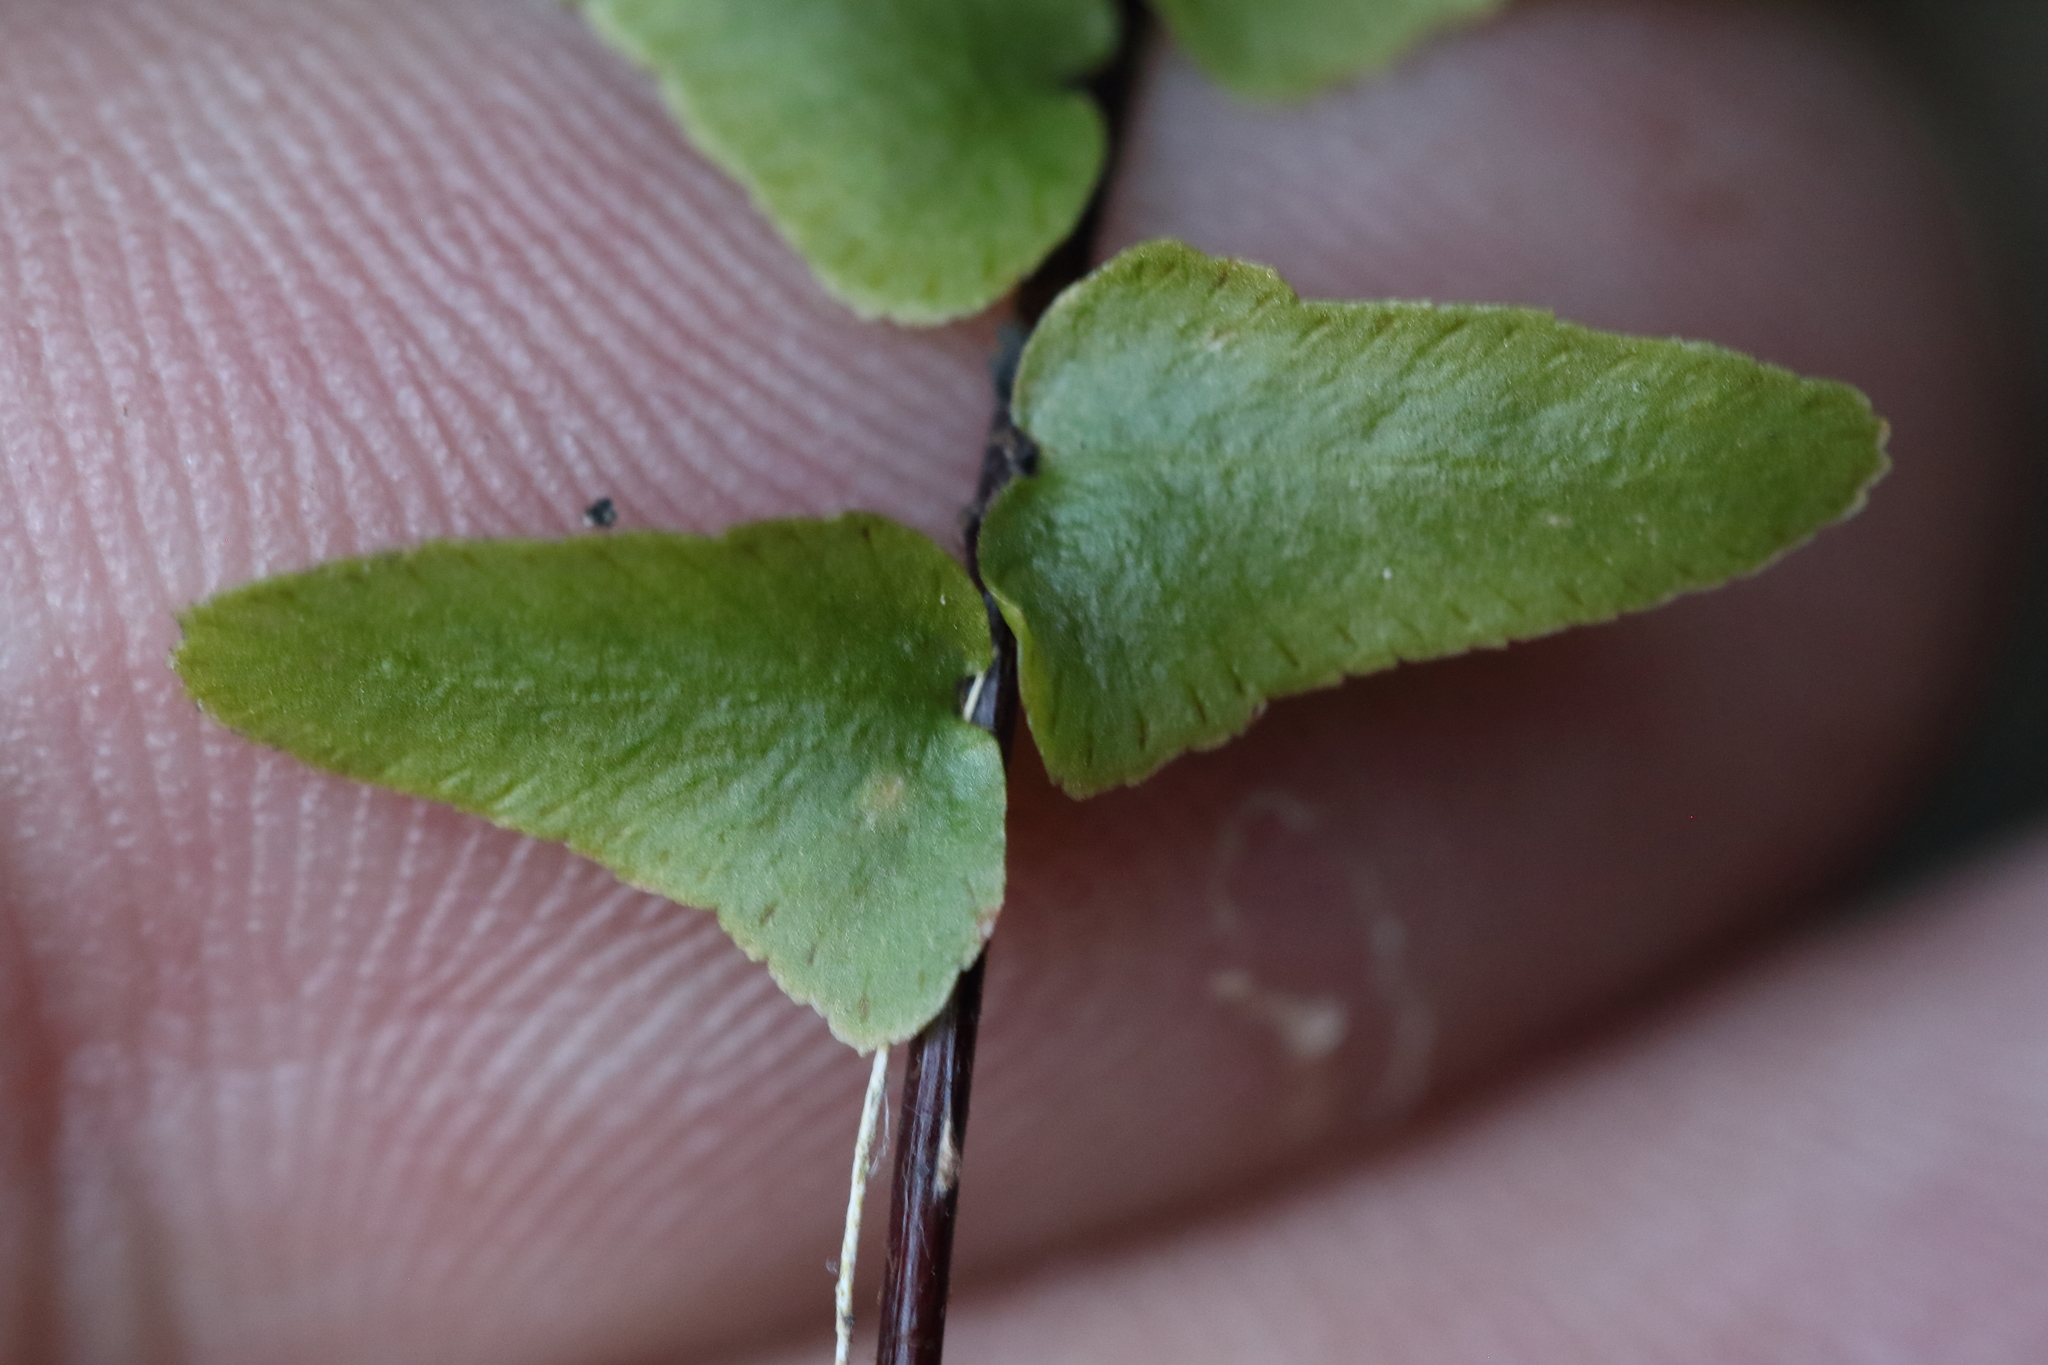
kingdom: Plantae
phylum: Tracheophyta
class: Polypodiopsida
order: Polypodiales
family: Aspleniaceae
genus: Asplenium
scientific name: Asplenium platyneuron
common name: Ebony spleenwort
